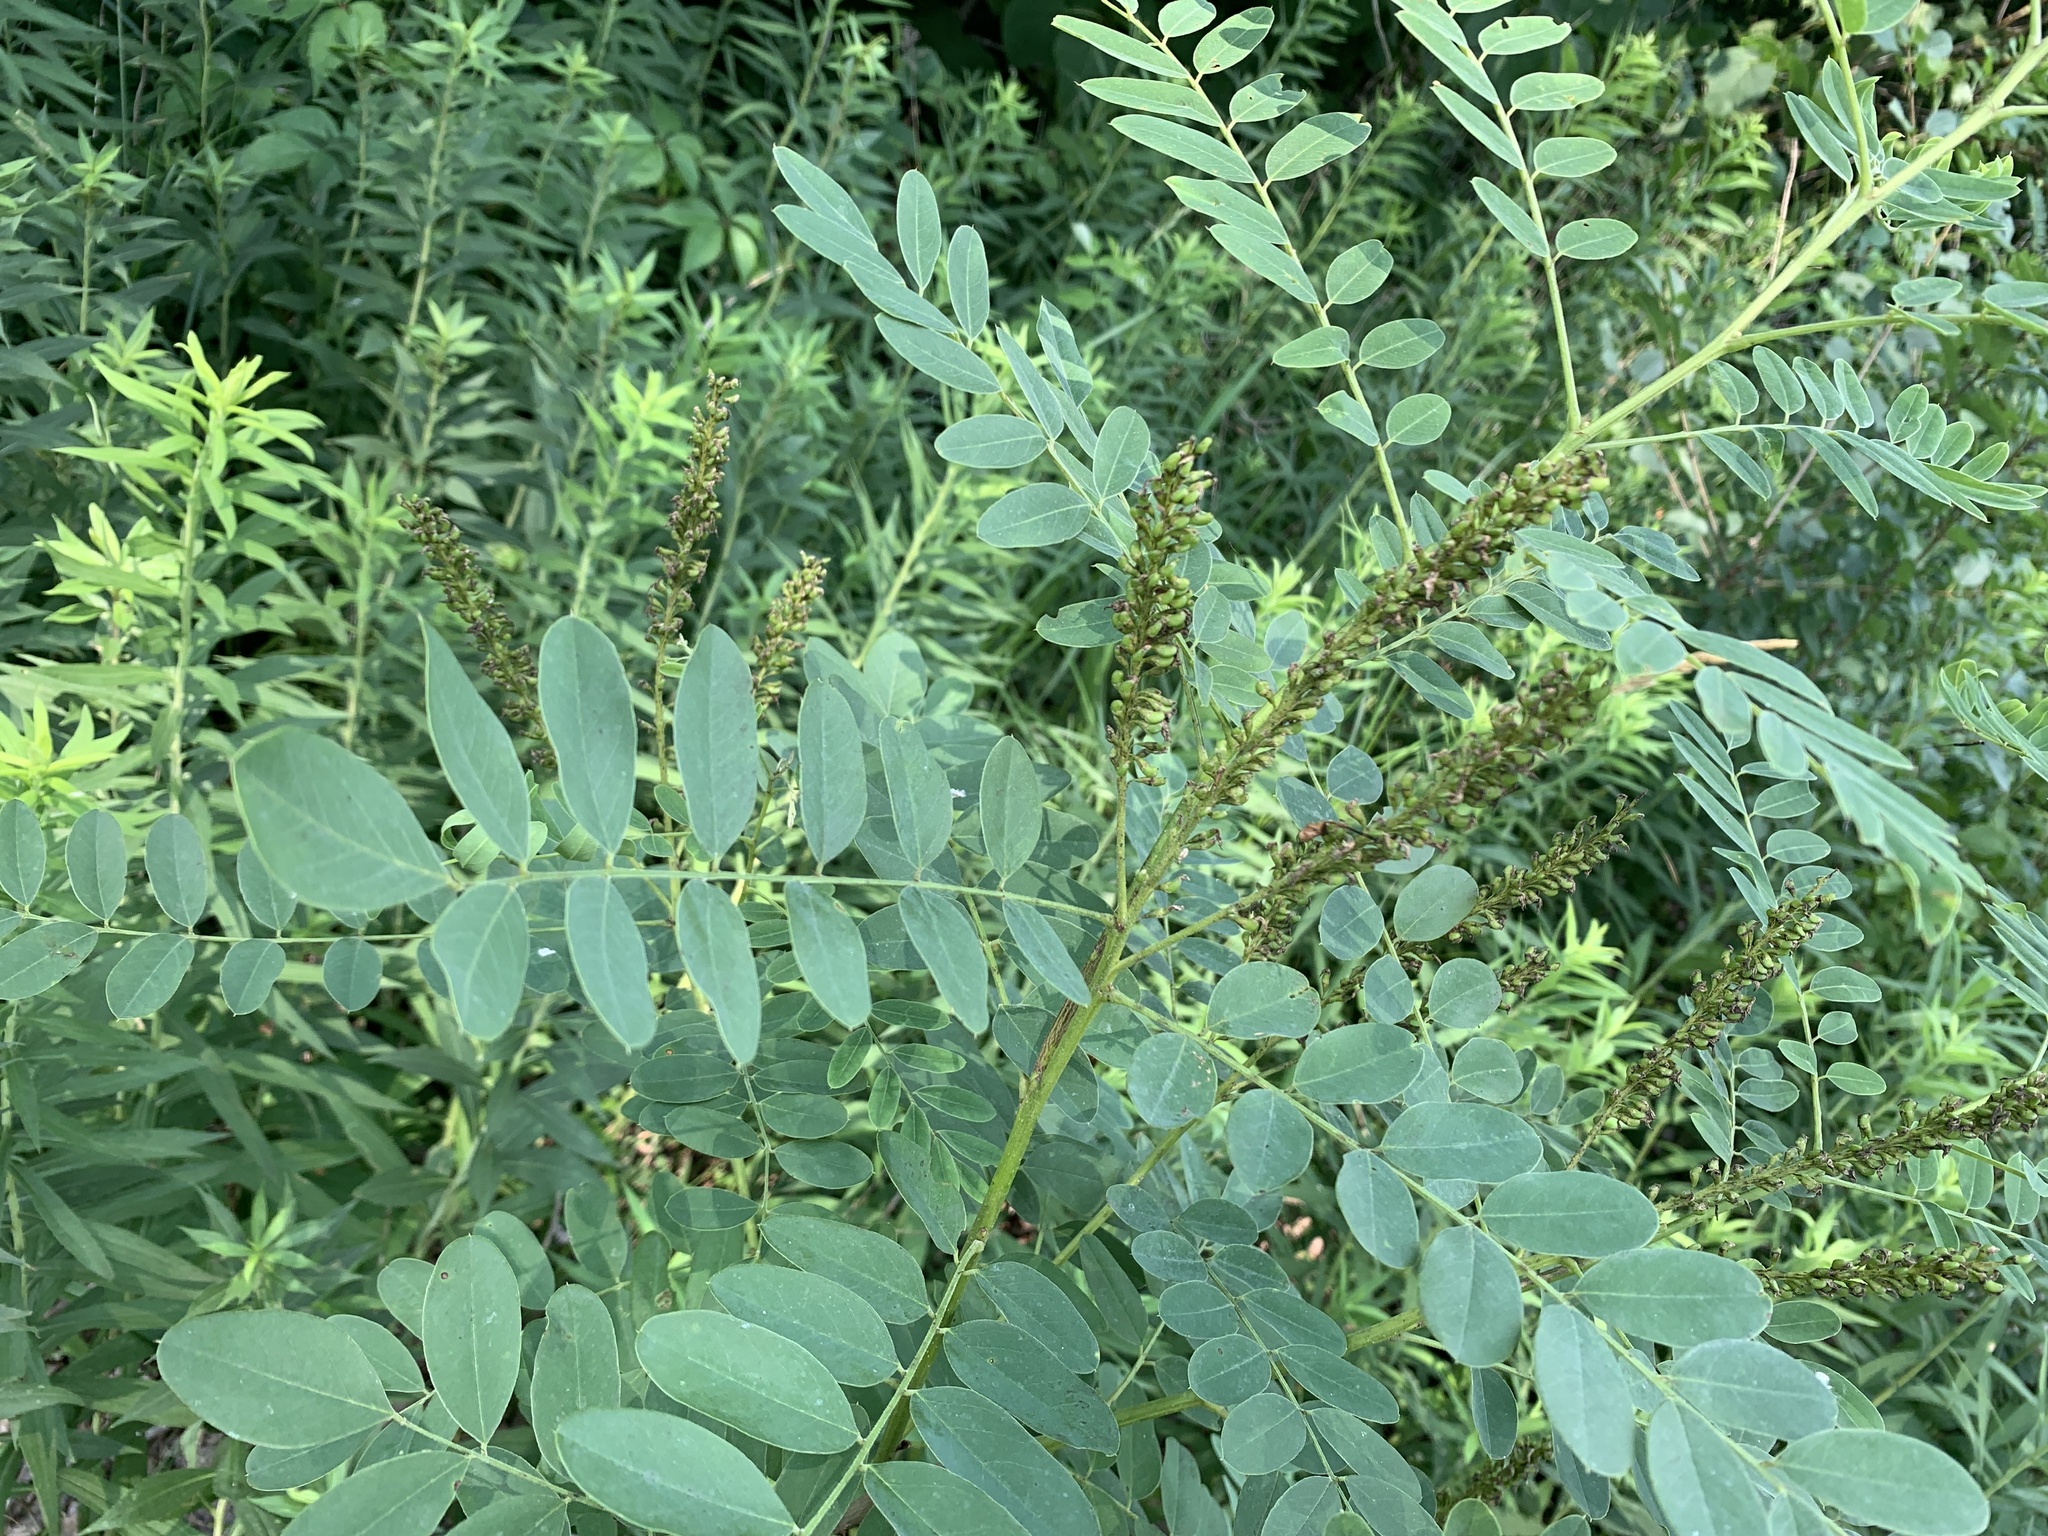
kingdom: Plantae
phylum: Tracheophyta
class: Magnoliopsida
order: Fabales
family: Fabaceae
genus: Amorpha
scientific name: Amorpha fruticosa
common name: False indigo
